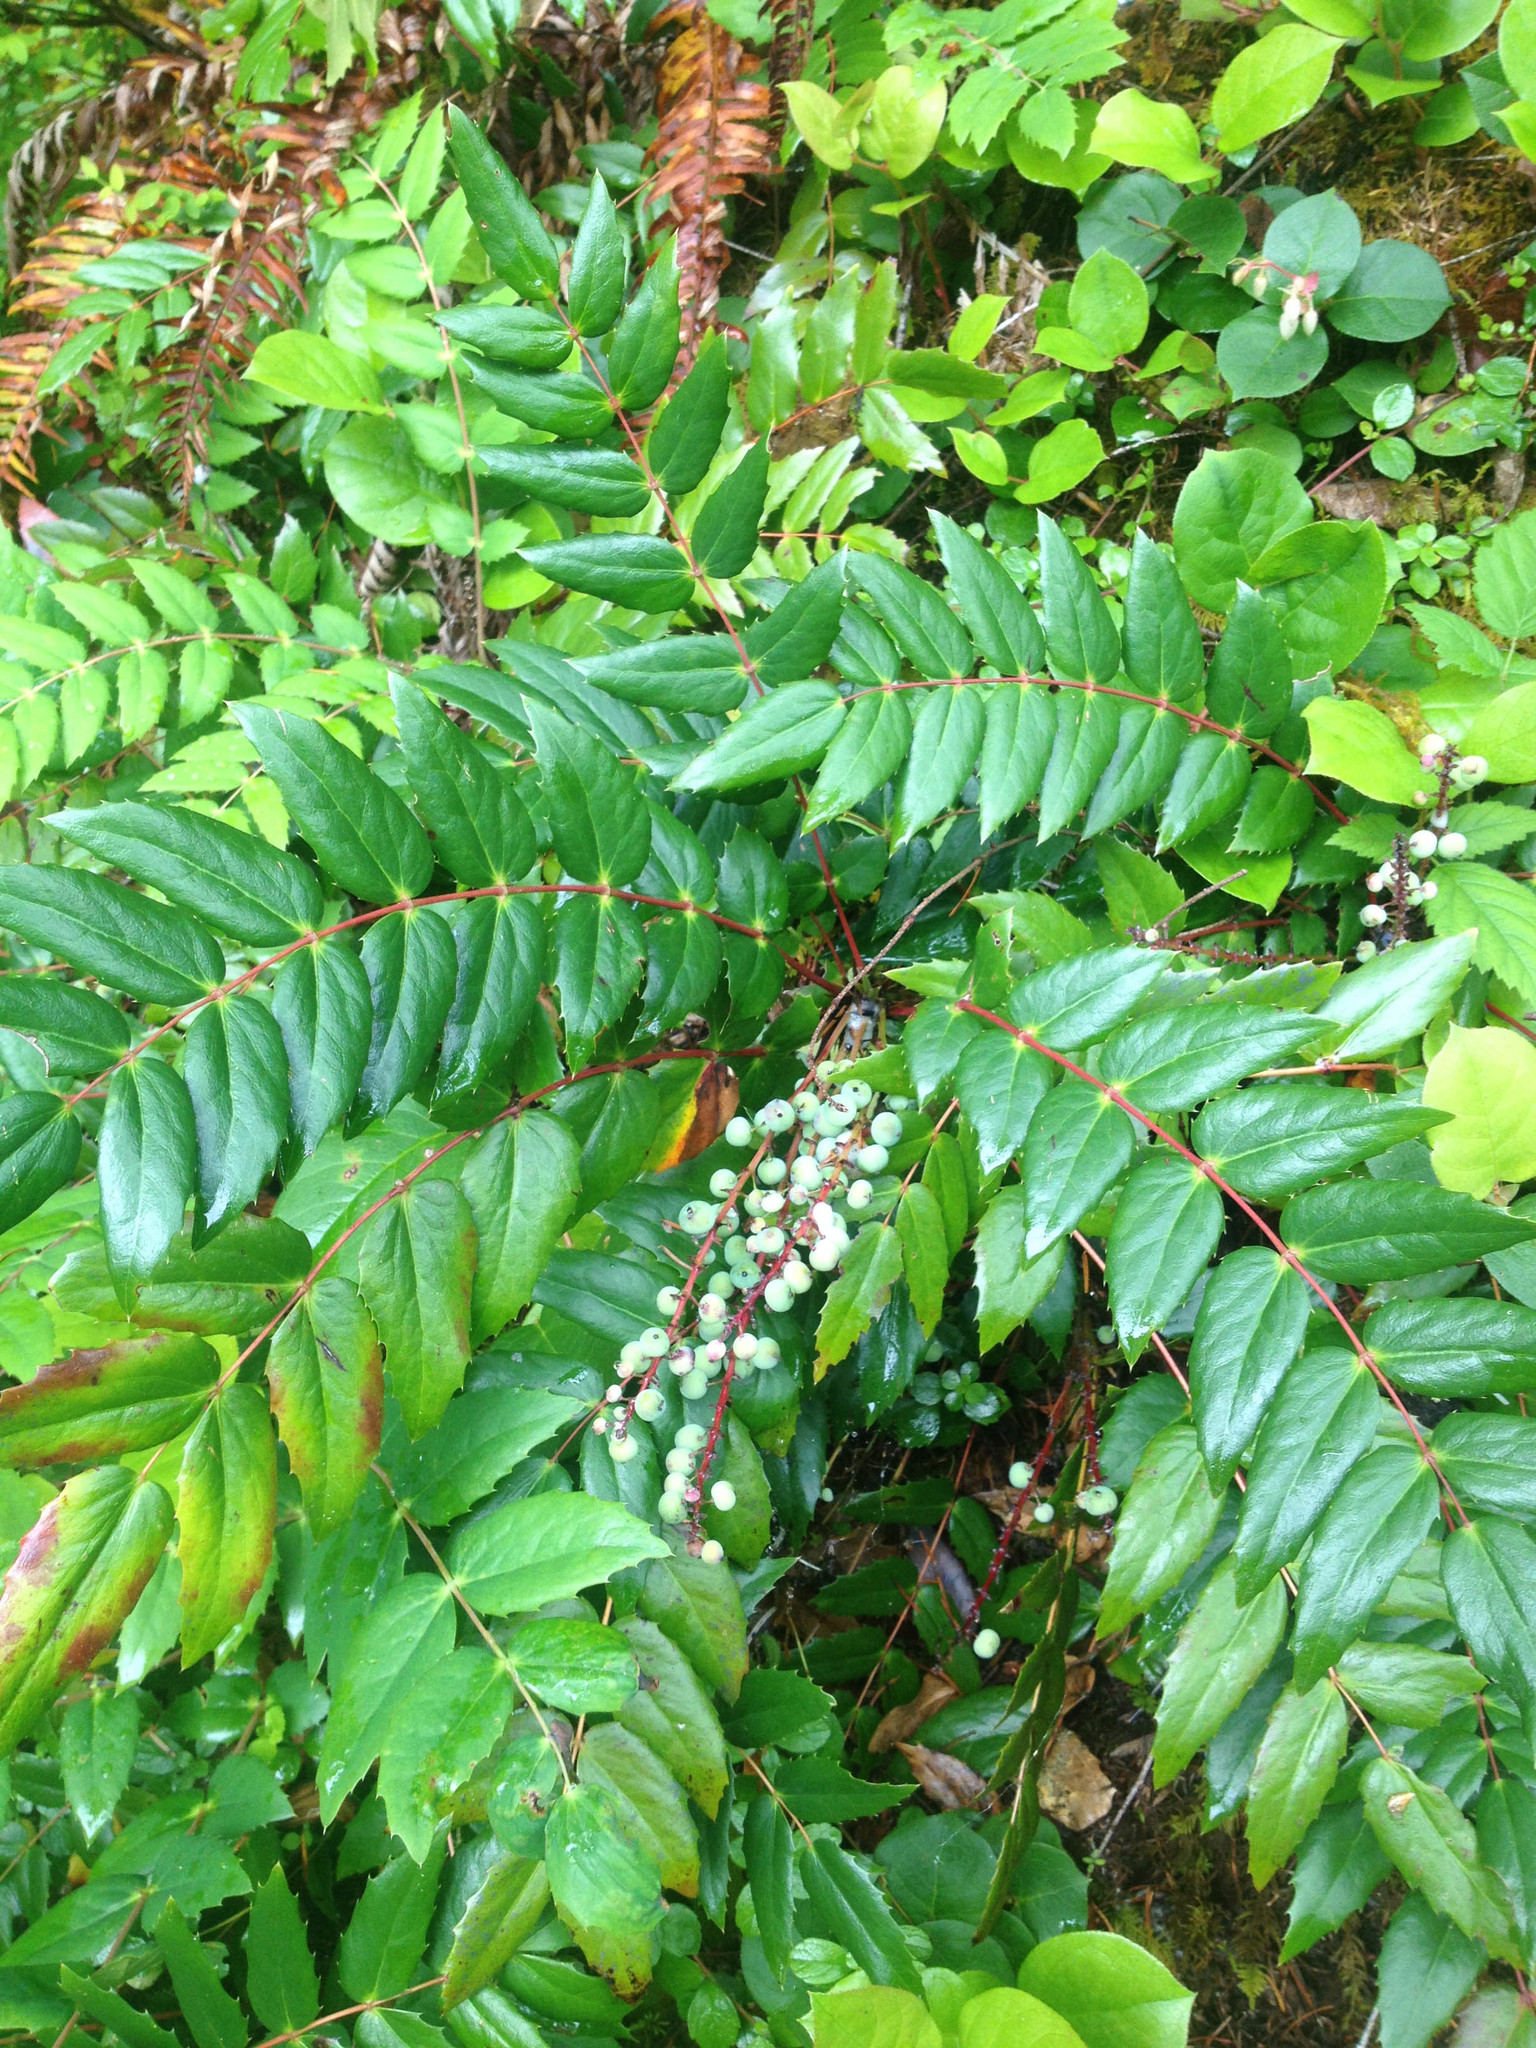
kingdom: Plantae
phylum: Tracheophyta
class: Magnoliopsida
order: Ranunculales
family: Berberidaceae
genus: Mahonia
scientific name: Mahonia nervosa
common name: Cascade oregon-grape
